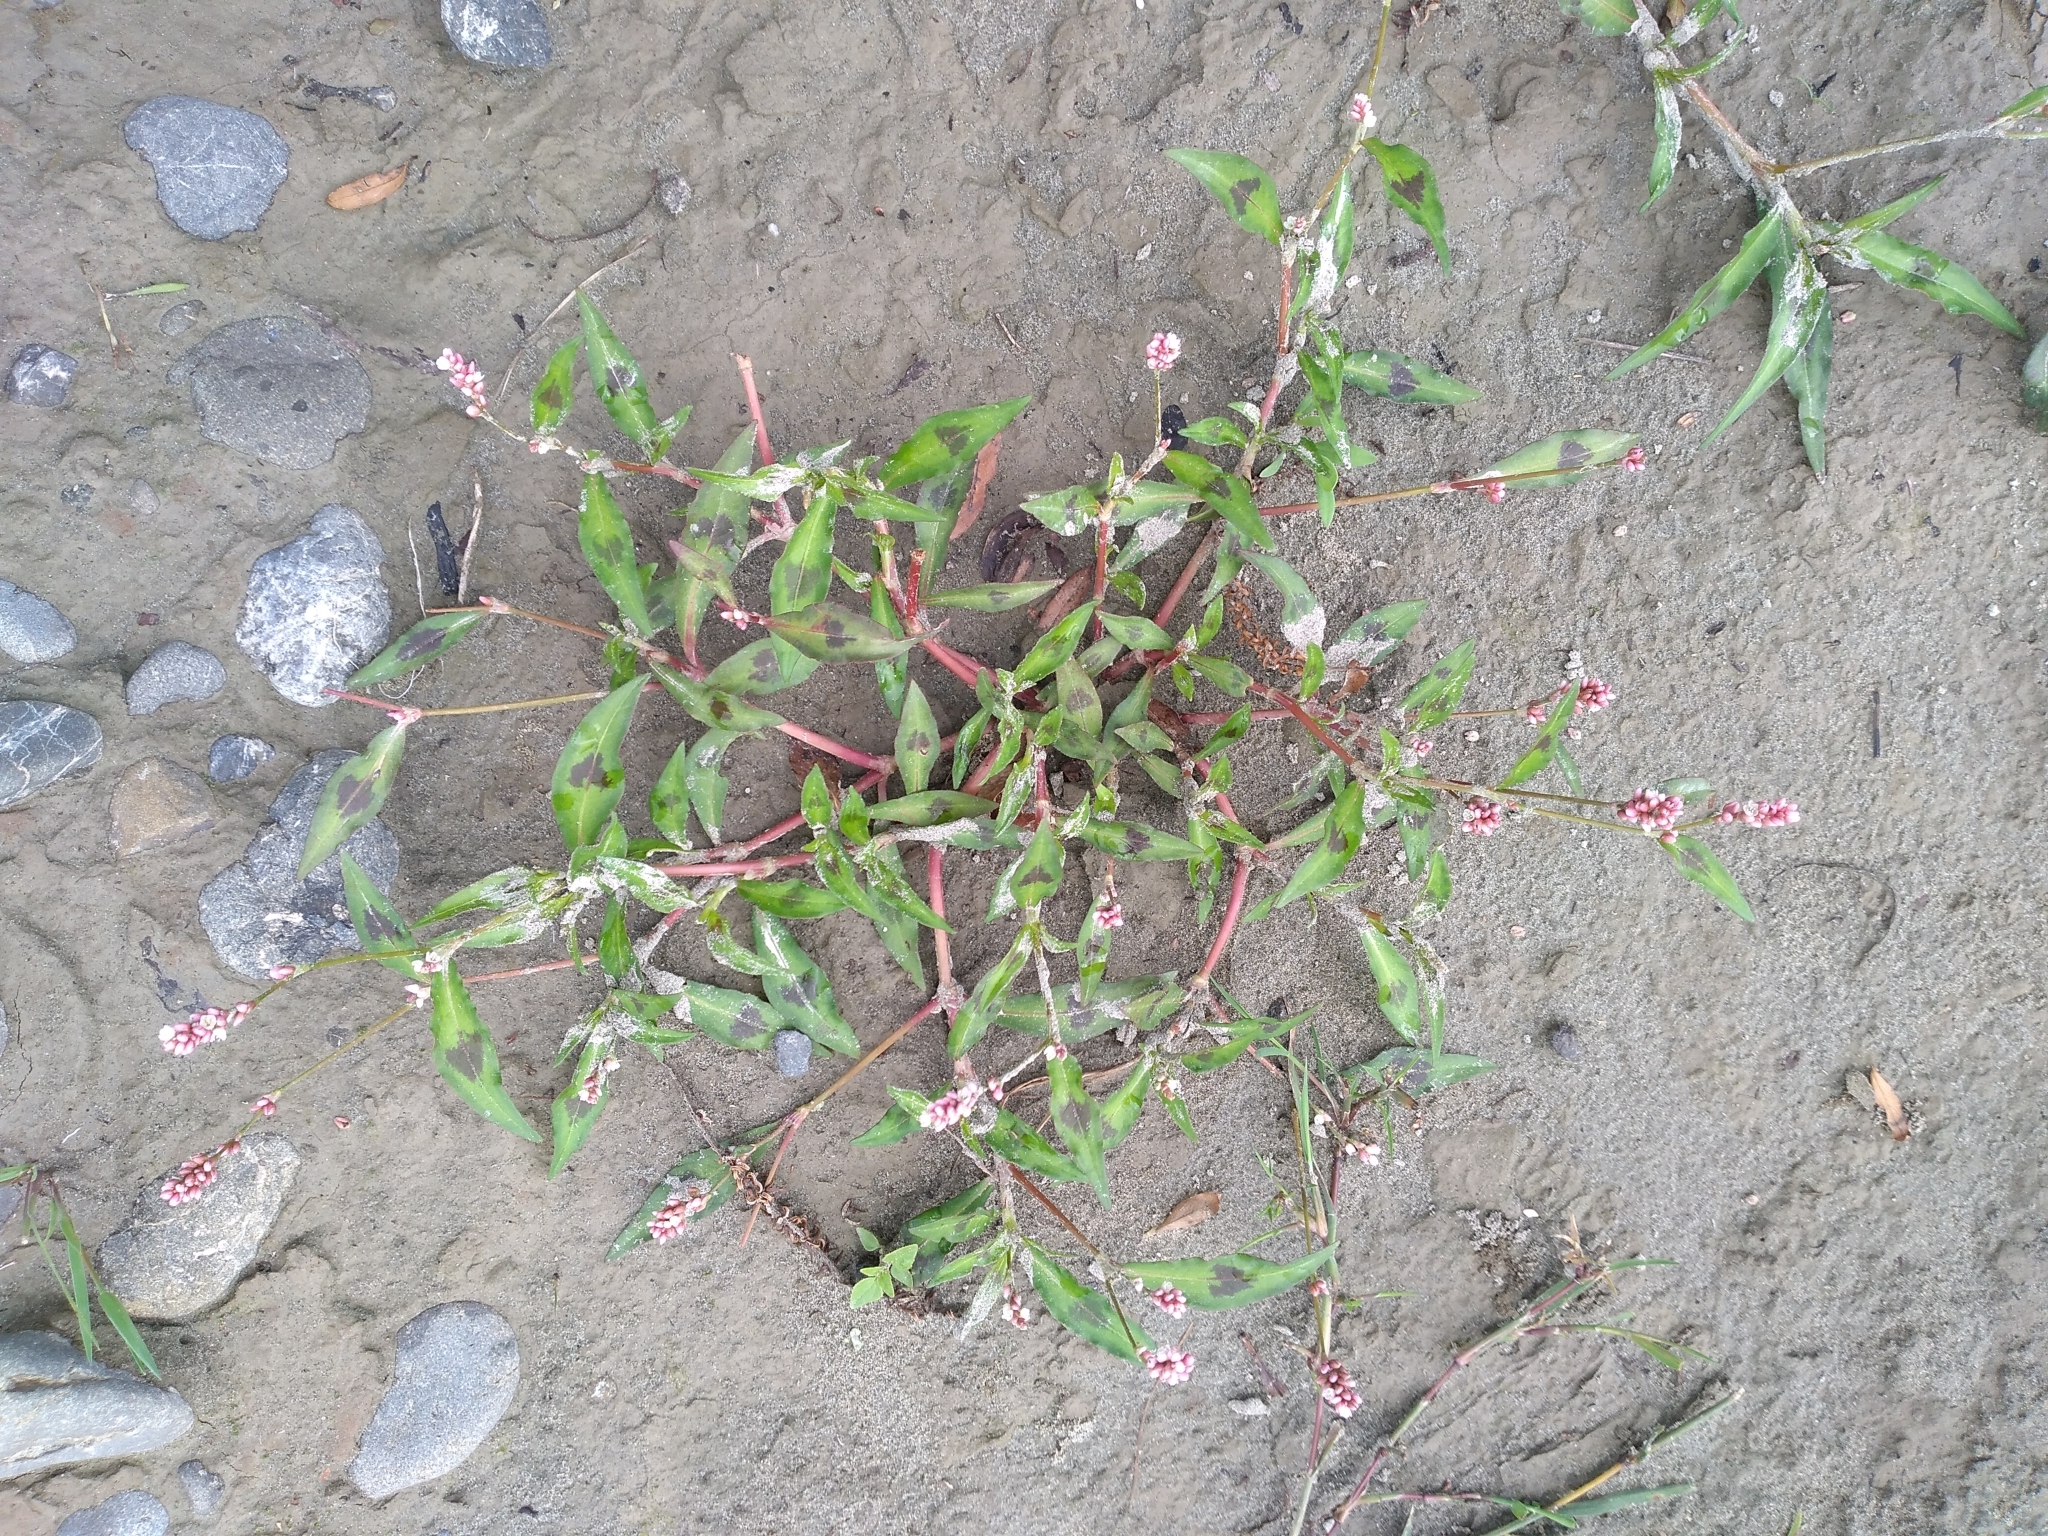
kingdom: Plantae
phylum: Tracheophyta
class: Magnoliopsida
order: Caryophyllales
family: Polygonaceae
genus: Persicaria
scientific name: Persicaria maculosa
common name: Redshank
